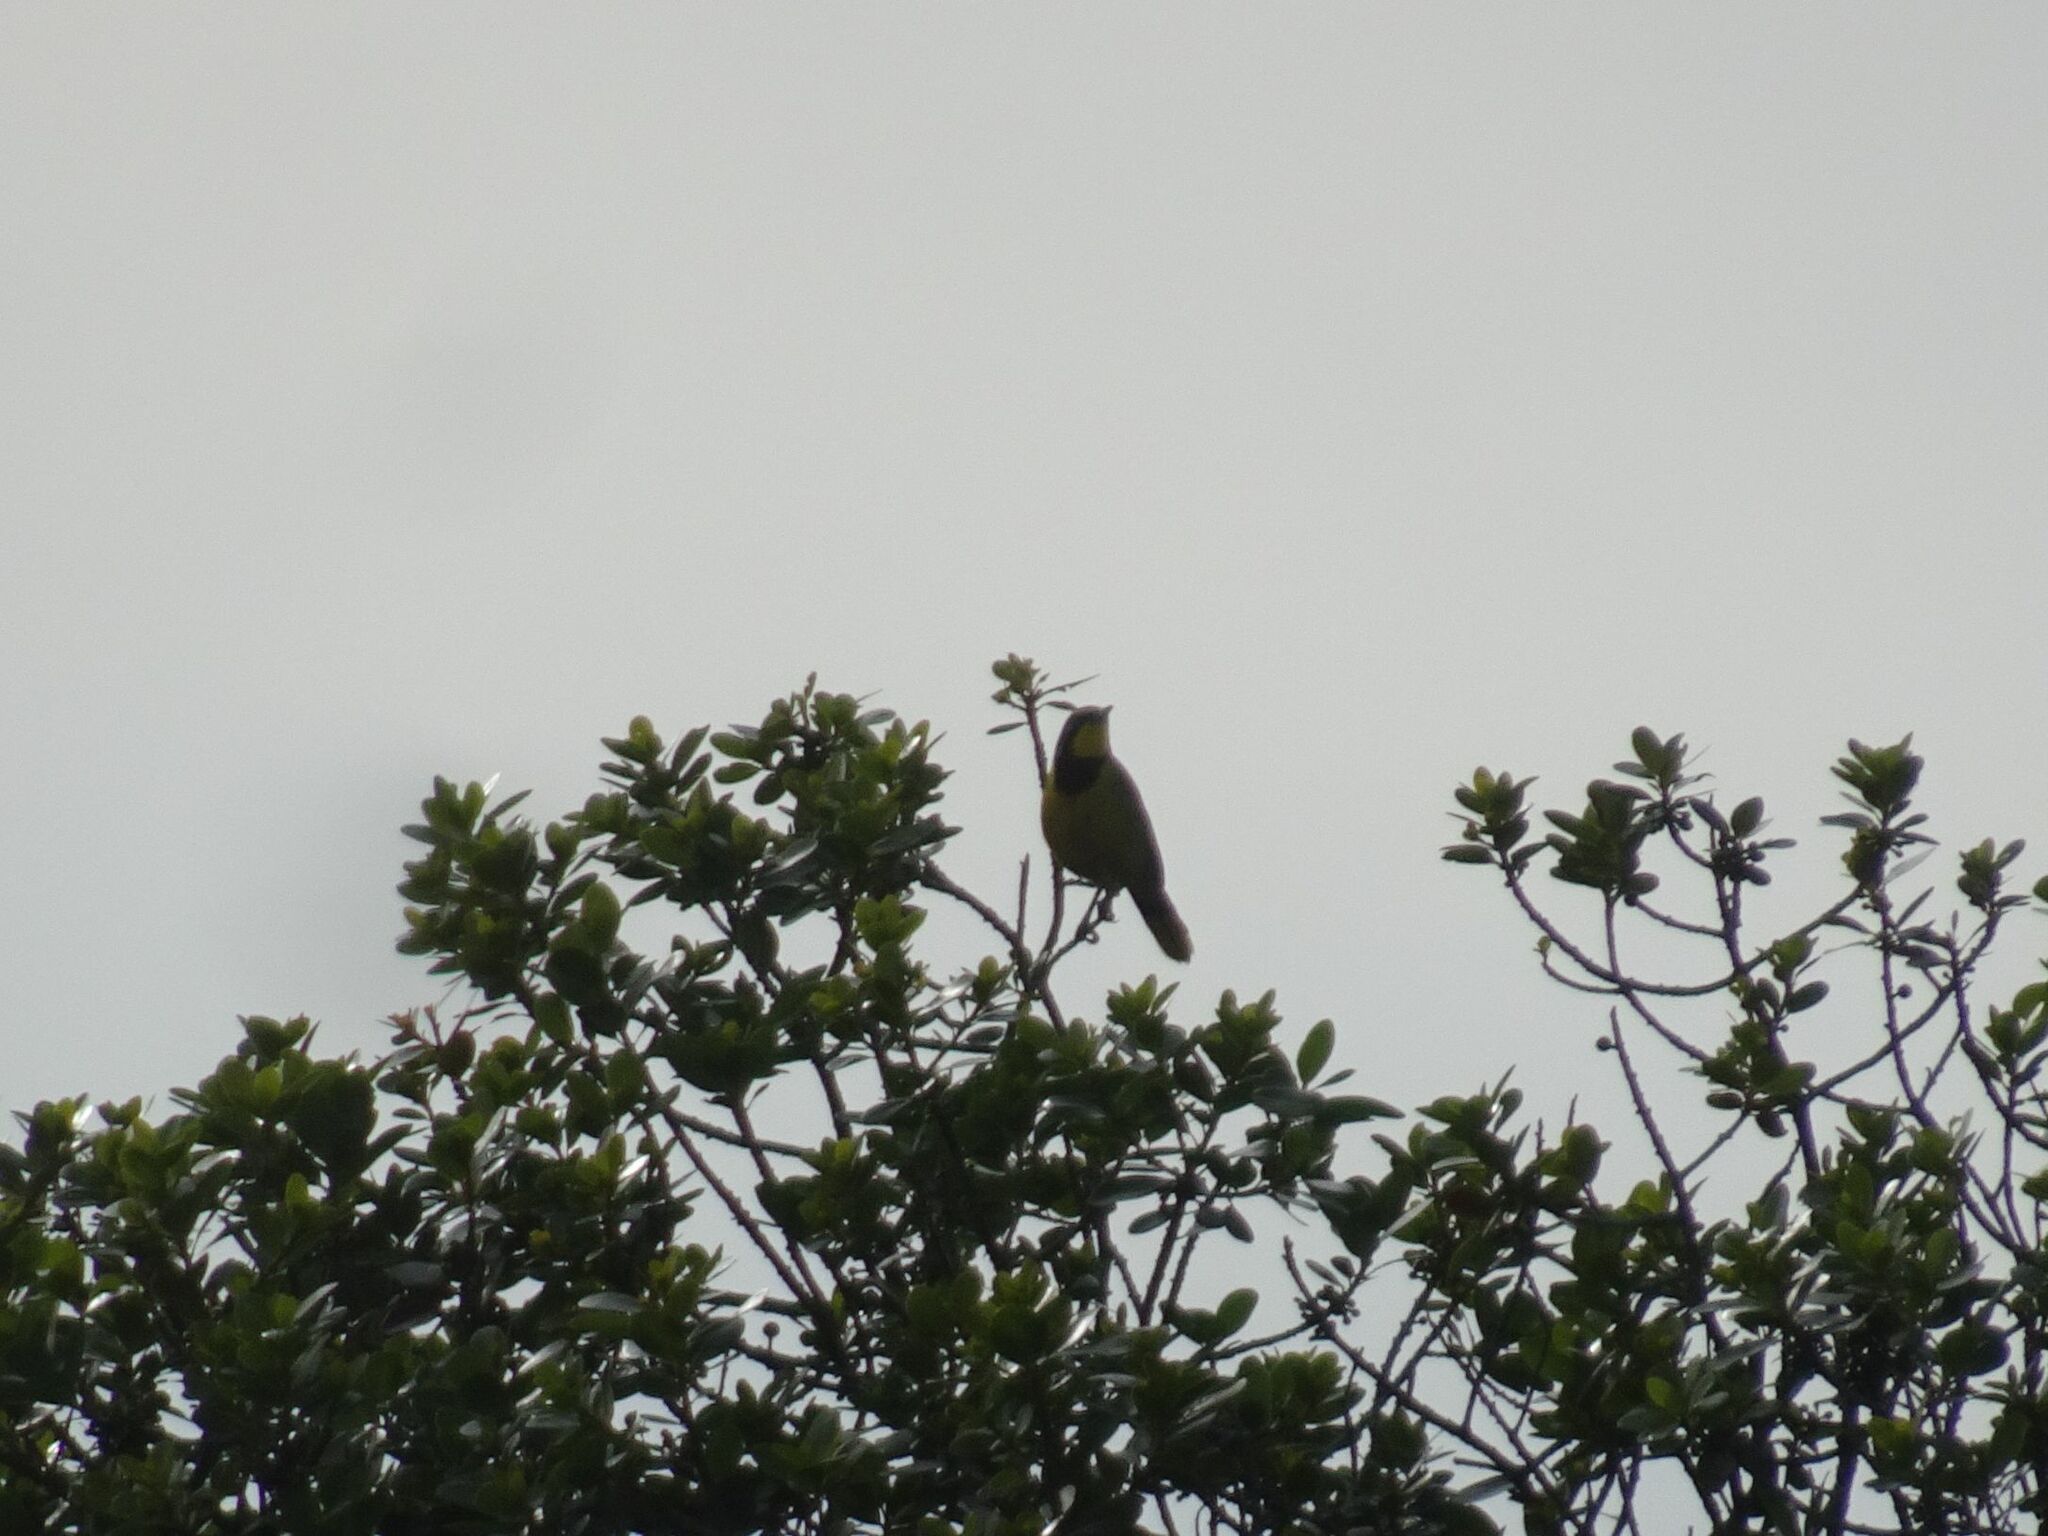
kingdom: Animalia
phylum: Chordata
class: Aves
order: Passeriformes
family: Malaconotidae
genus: Telophorus
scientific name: Telophorus zeylonus
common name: Bokmakierie
